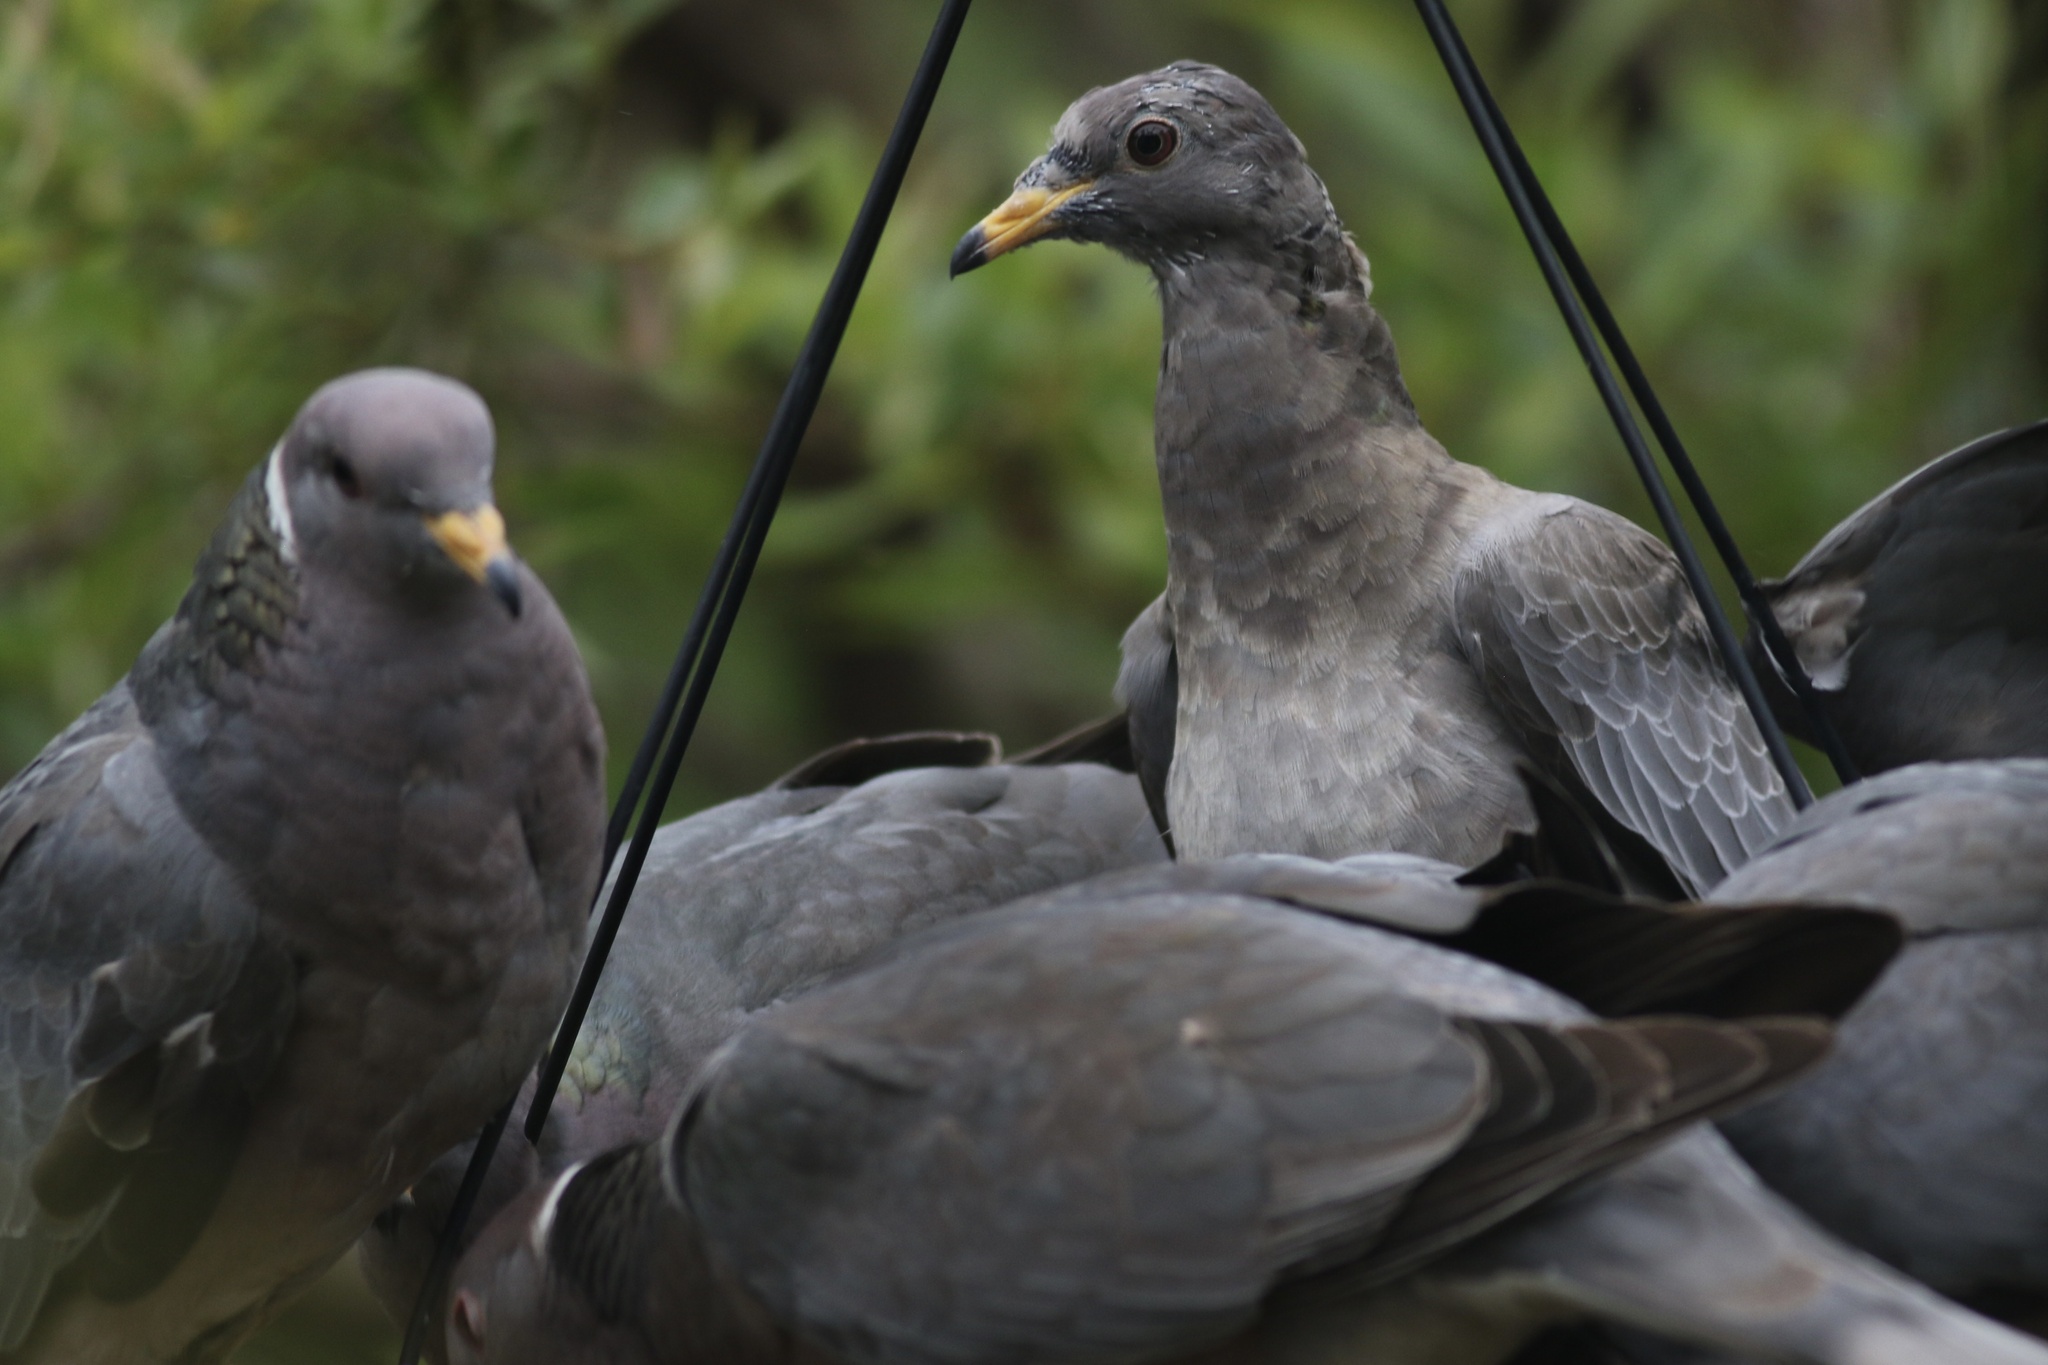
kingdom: Animalia
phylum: Chordata
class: Aves
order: Columbiformes
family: Columbidae
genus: Patagioenas
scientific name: Patagioenas fasciata
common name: Band-tailed pigeon
